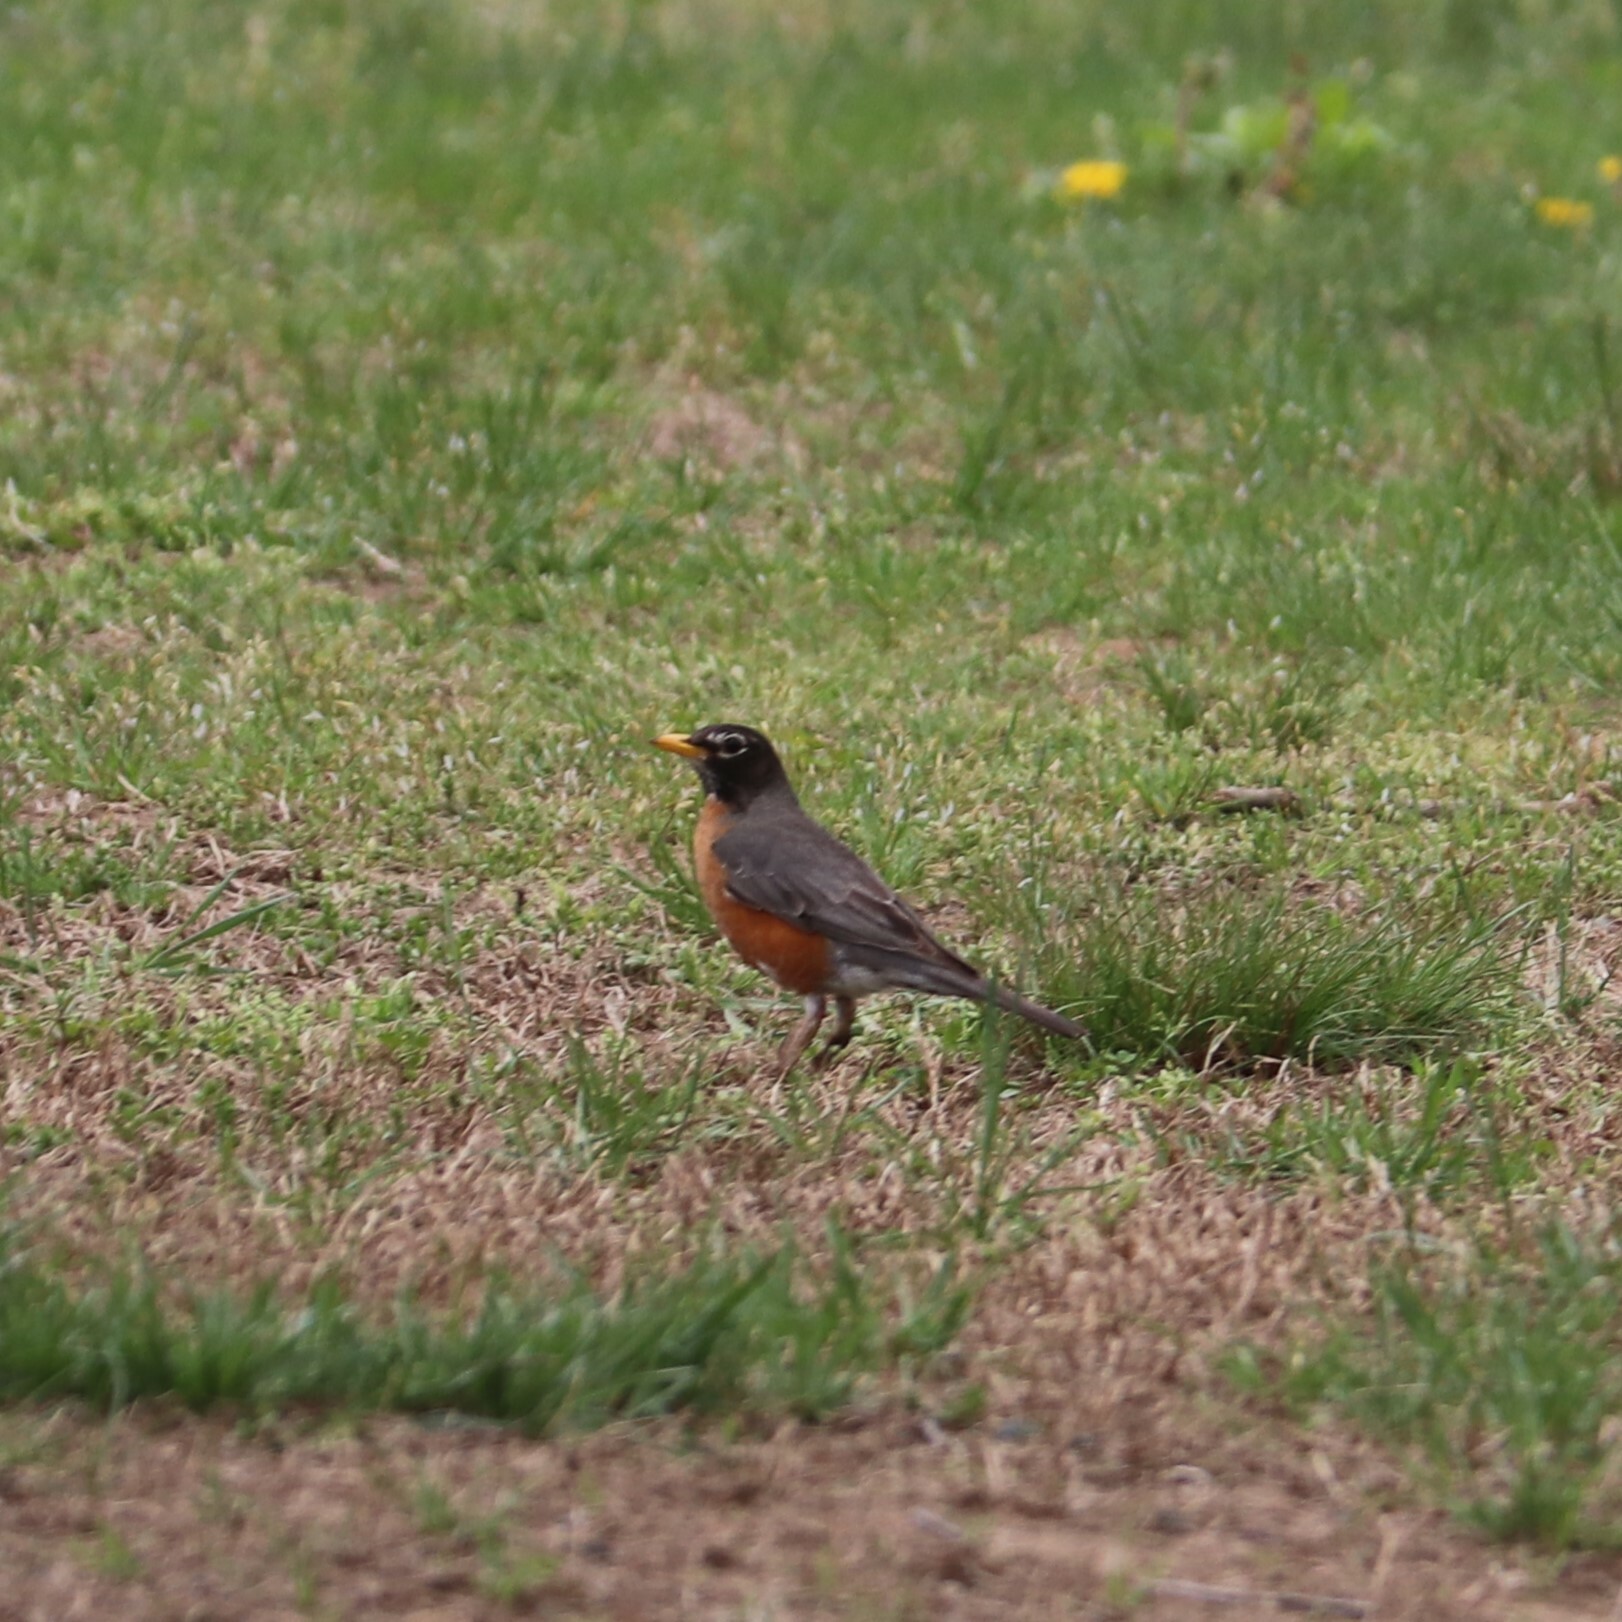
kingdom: Animalia
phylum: Chordata
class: Aves
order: Passeriformes
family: Turdidae
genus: Turdus
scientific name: Turdus migratorius
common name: American robin
